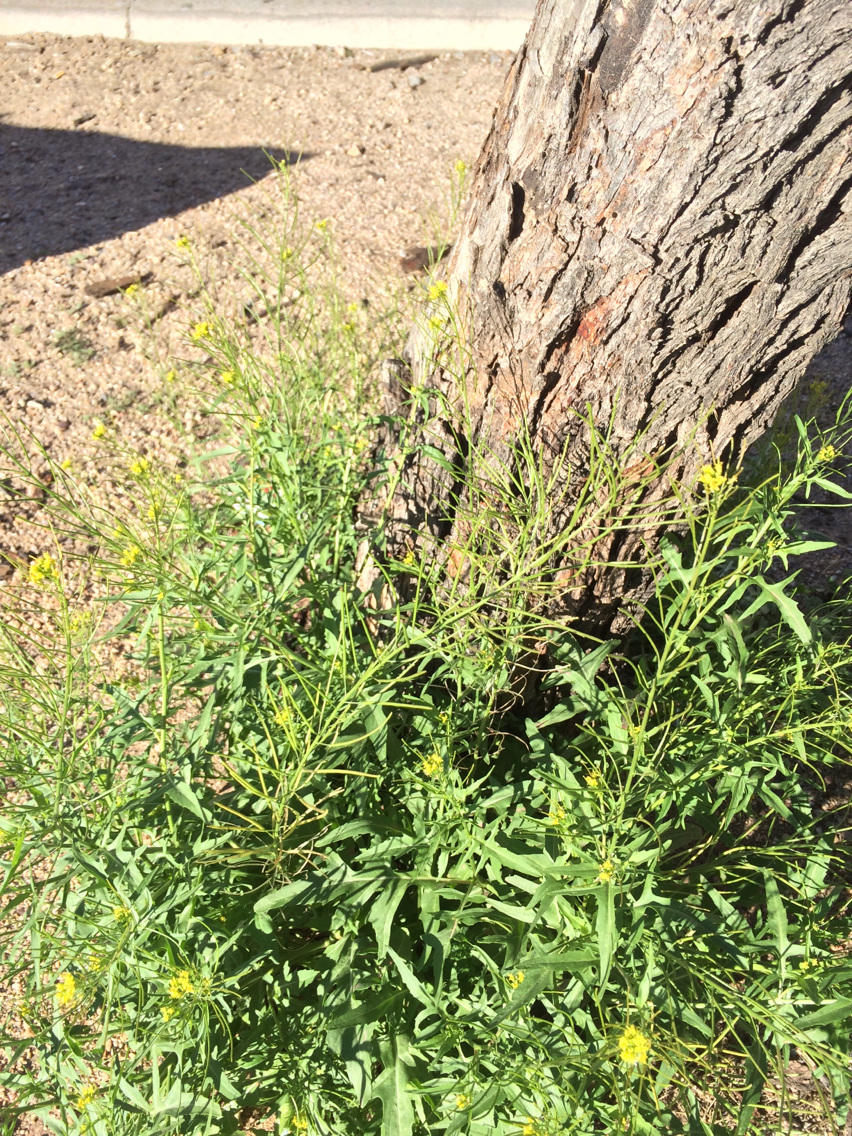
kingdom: Plantae
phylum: Tracheophyta
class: Magnoliopsida
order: Brassicales
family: Brassicaceae
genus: Sisymbrium
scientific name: Sisymbrium irio
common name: London rocket
